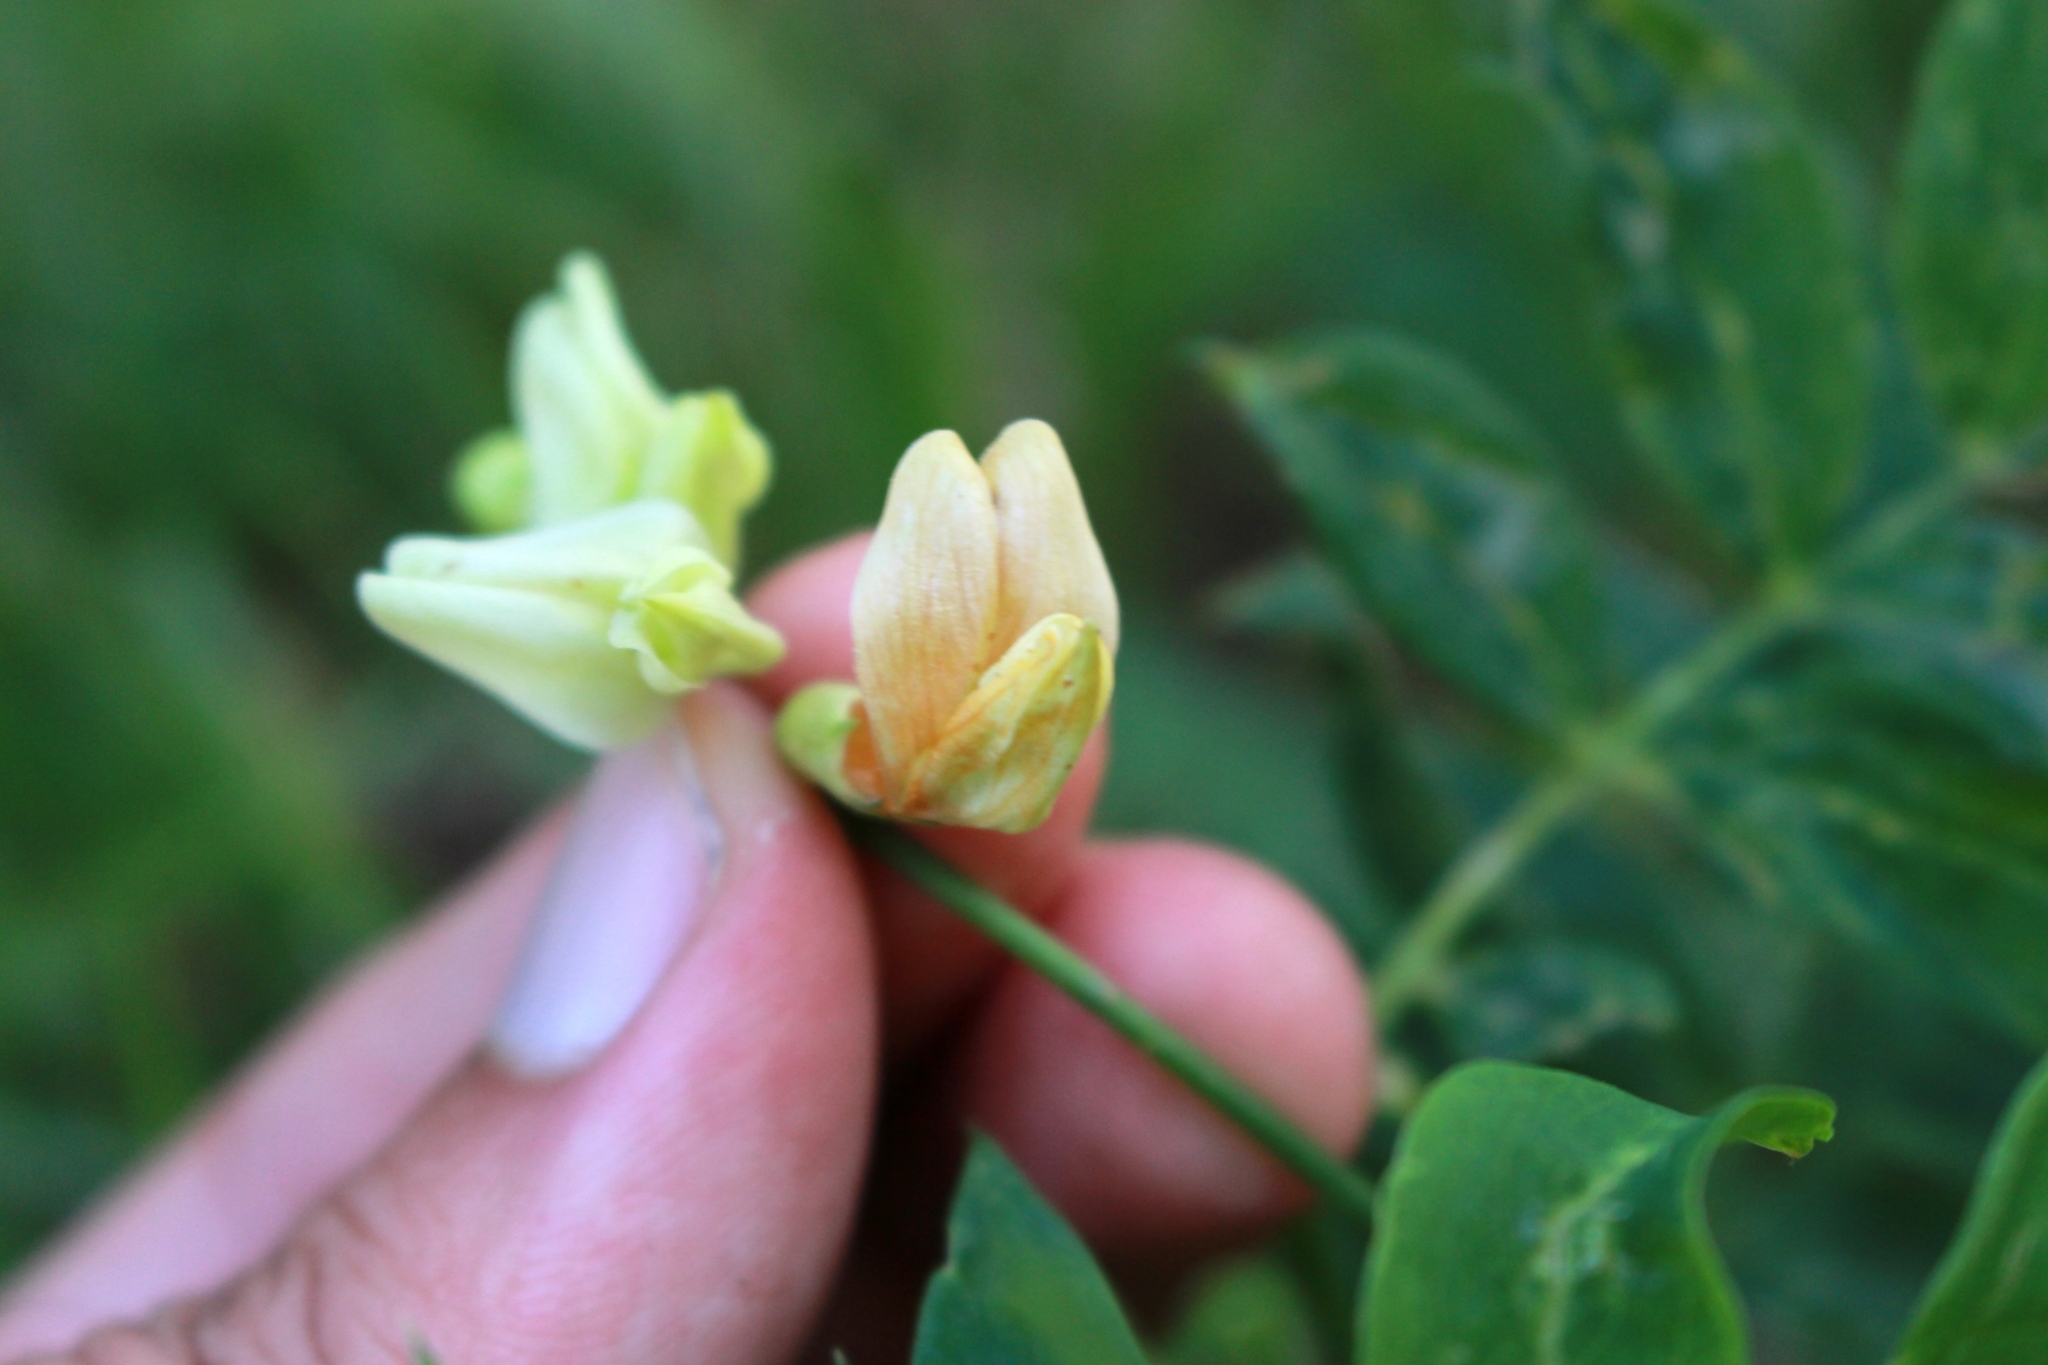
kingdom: Plantae
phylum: Tracheophyta
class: Magnoliopsida
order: Fabales
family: Fabaceae
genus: Lathyrus
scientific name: Lathyrus laevigatus
